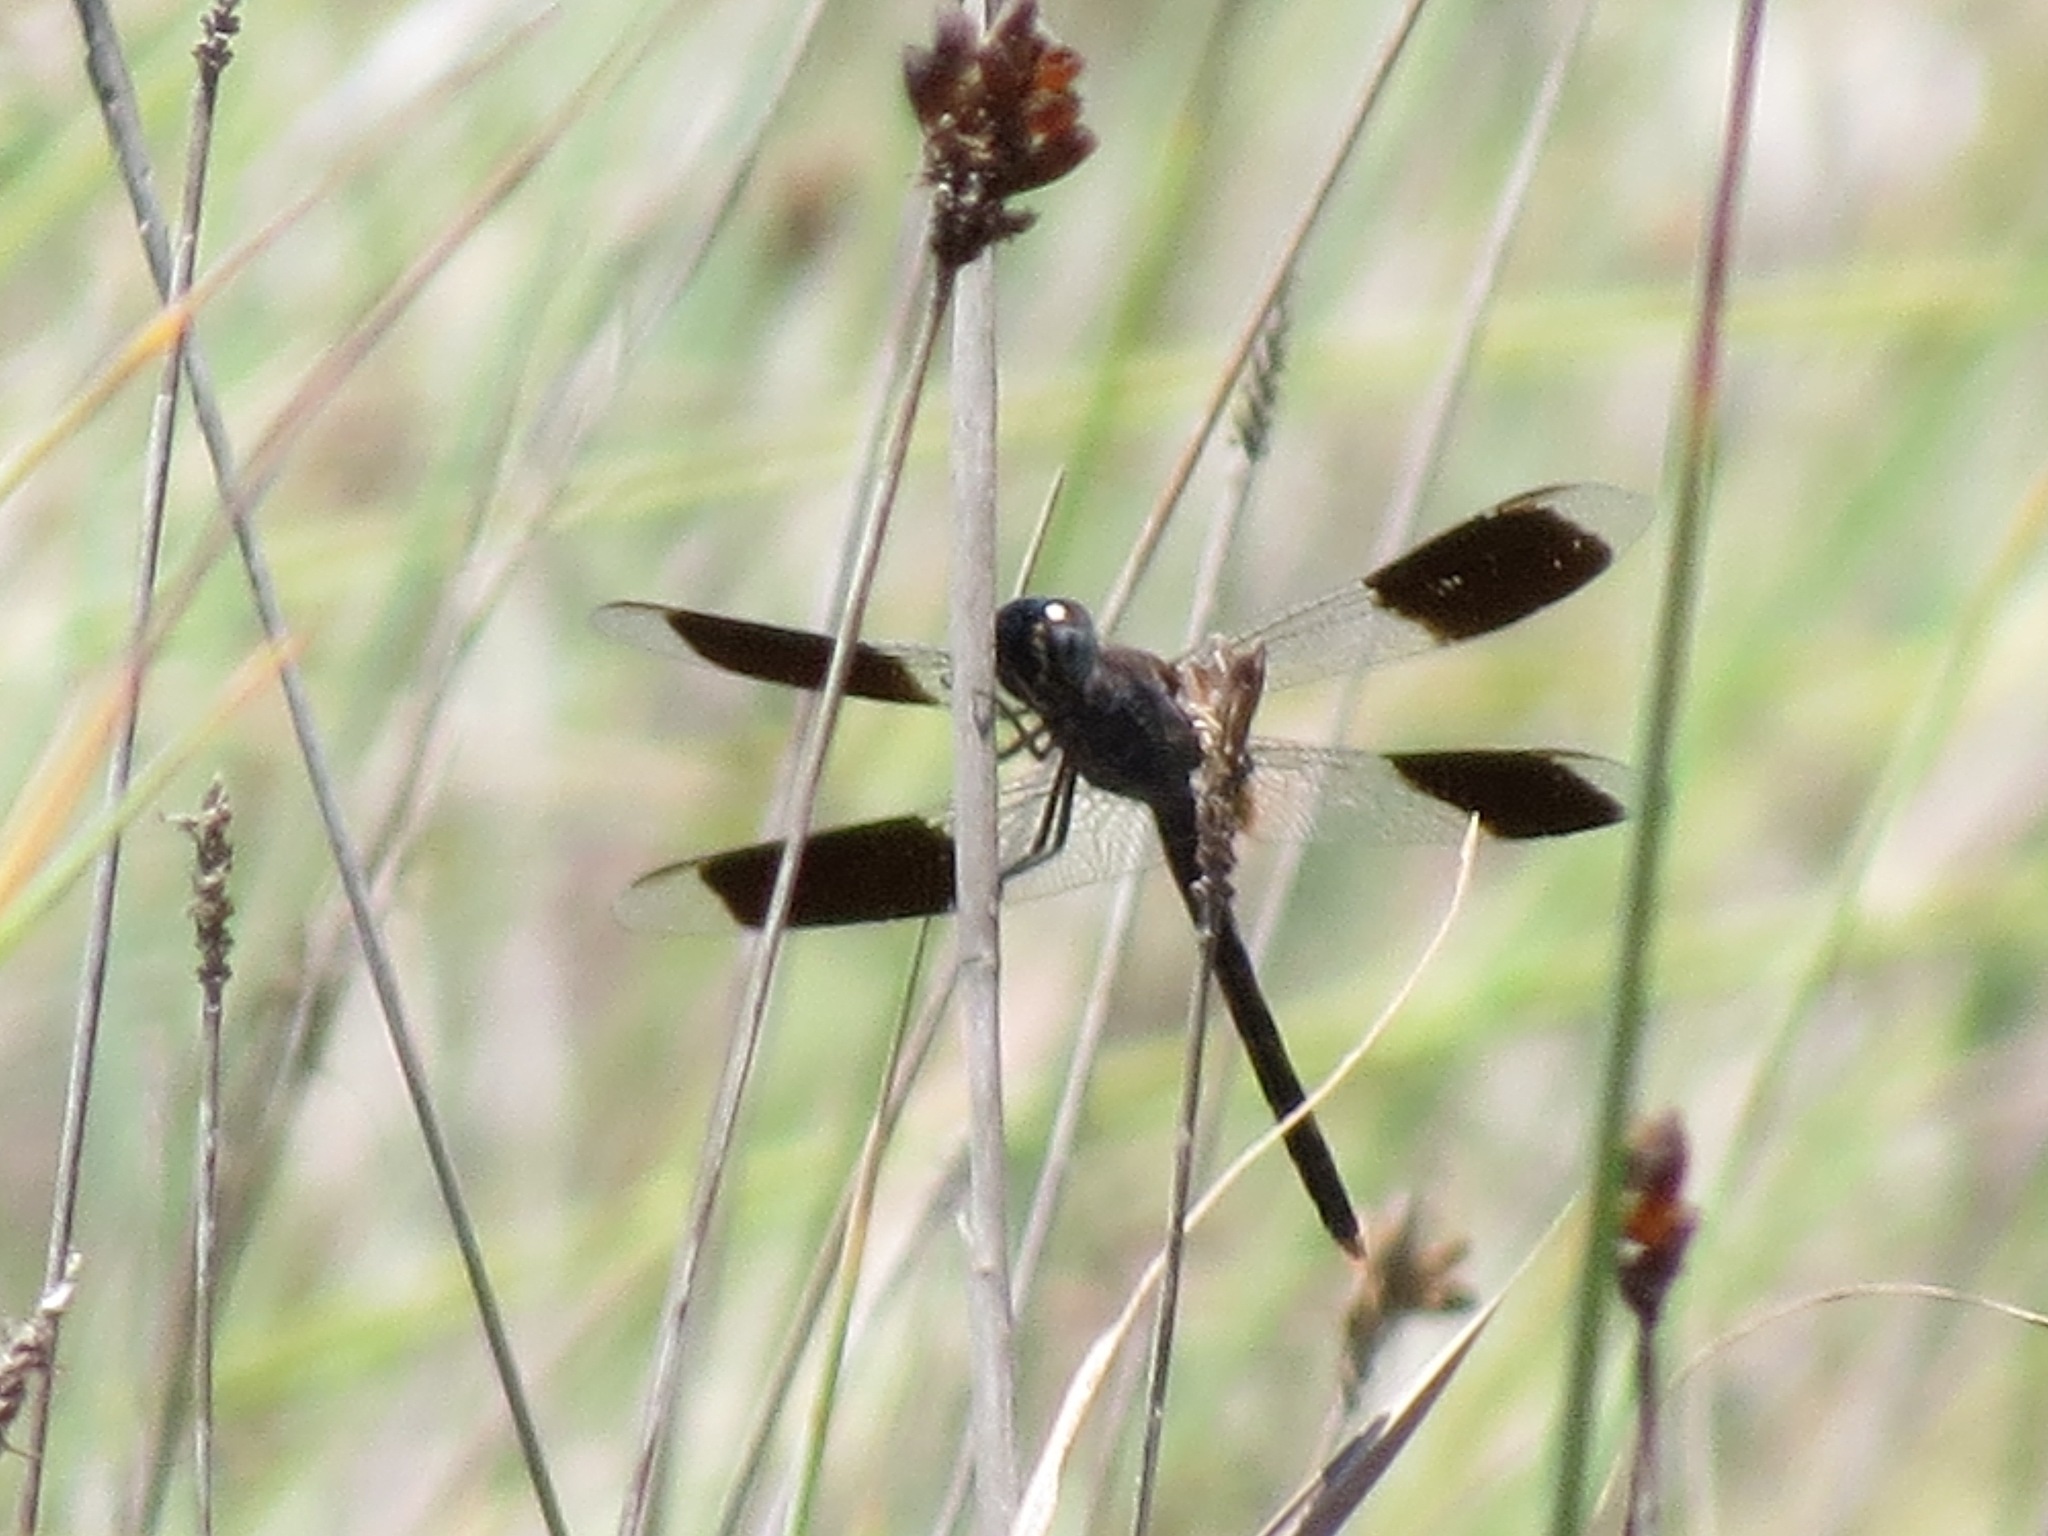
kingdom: Animalia
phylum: Arthropoda
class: Insecta
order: Odonata
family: Libellulidae
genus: Erythrodiplax
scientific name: Erythrodiplax umbrata
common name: Band-winged dragonlet
